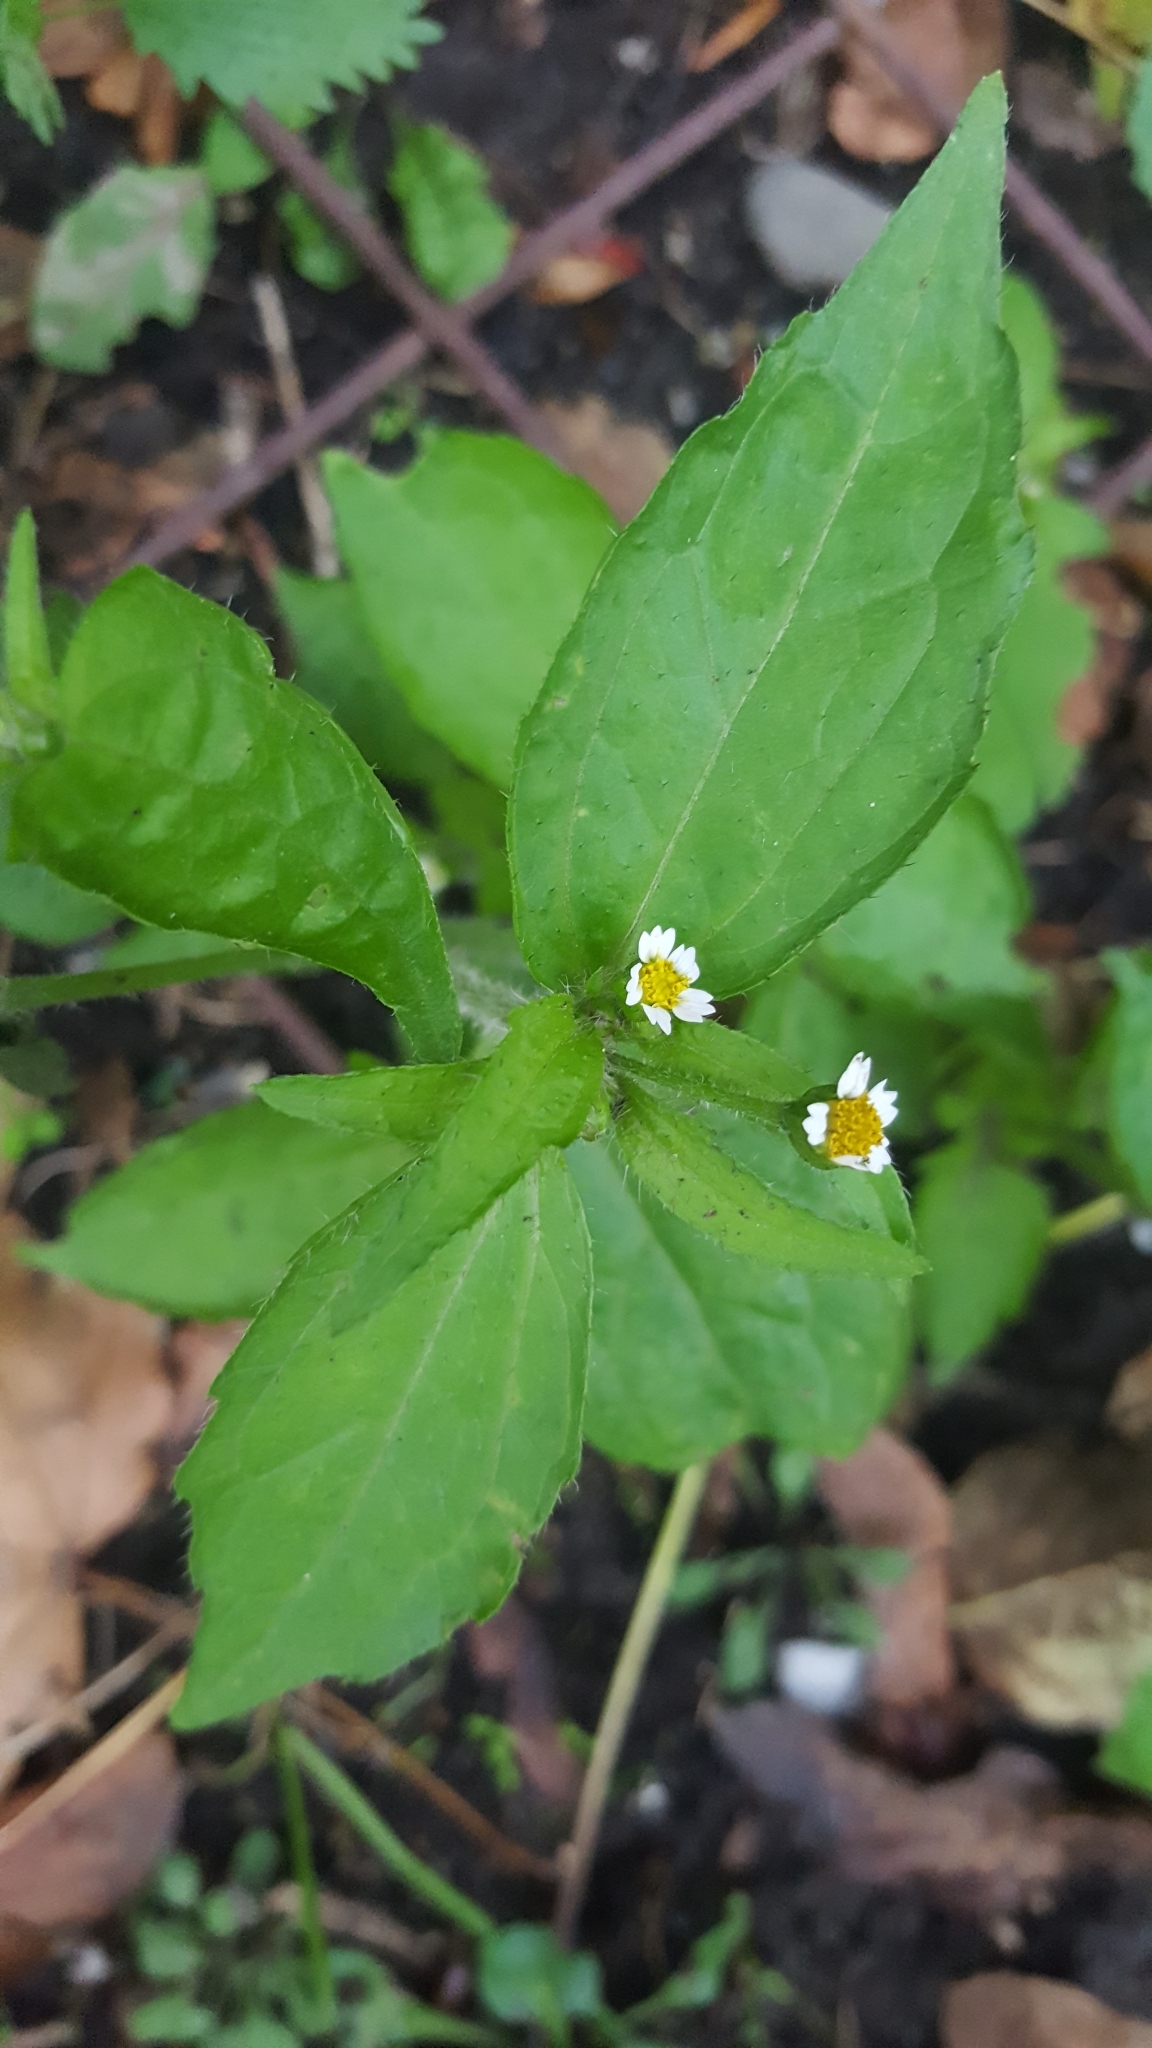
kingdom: Plantae
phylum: Tracheophyta
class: Magnoliopsida
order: Asterales
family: Asteraceae
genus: Galinsoga
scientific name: Galinsoga quadriradiata
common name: Shaggy soldier
